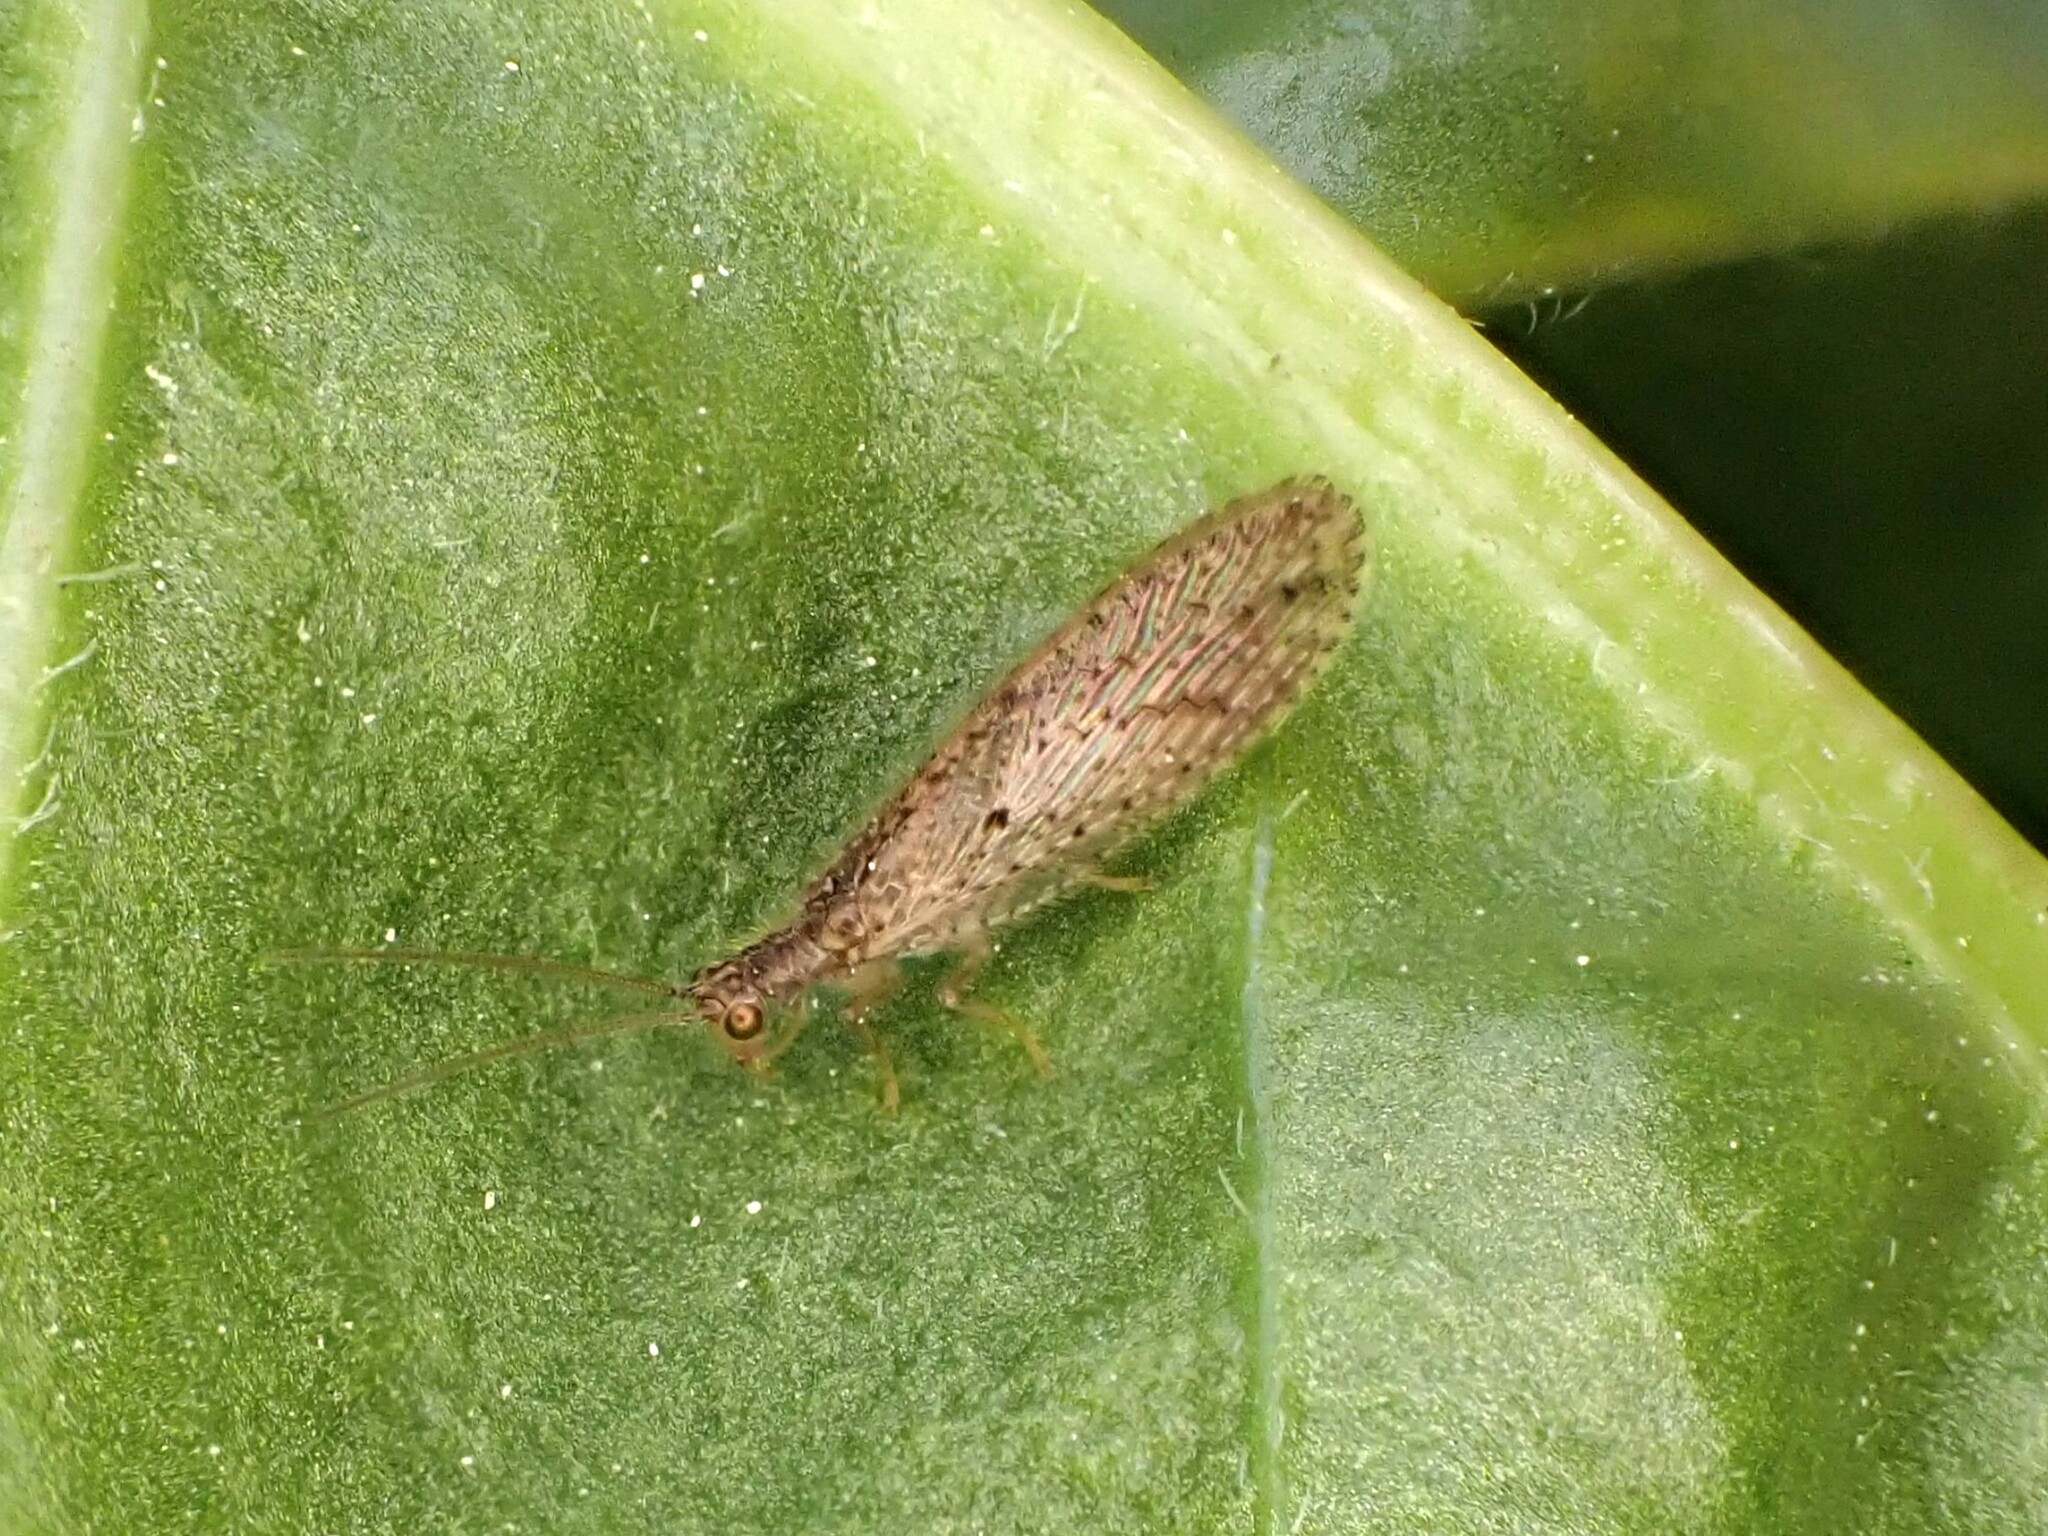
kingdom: Animalia
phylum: Arthropoda
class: Insecta
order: Neuroptera
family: Hemerobiidae
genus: Micromus
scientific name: Micromus tasmaniae
